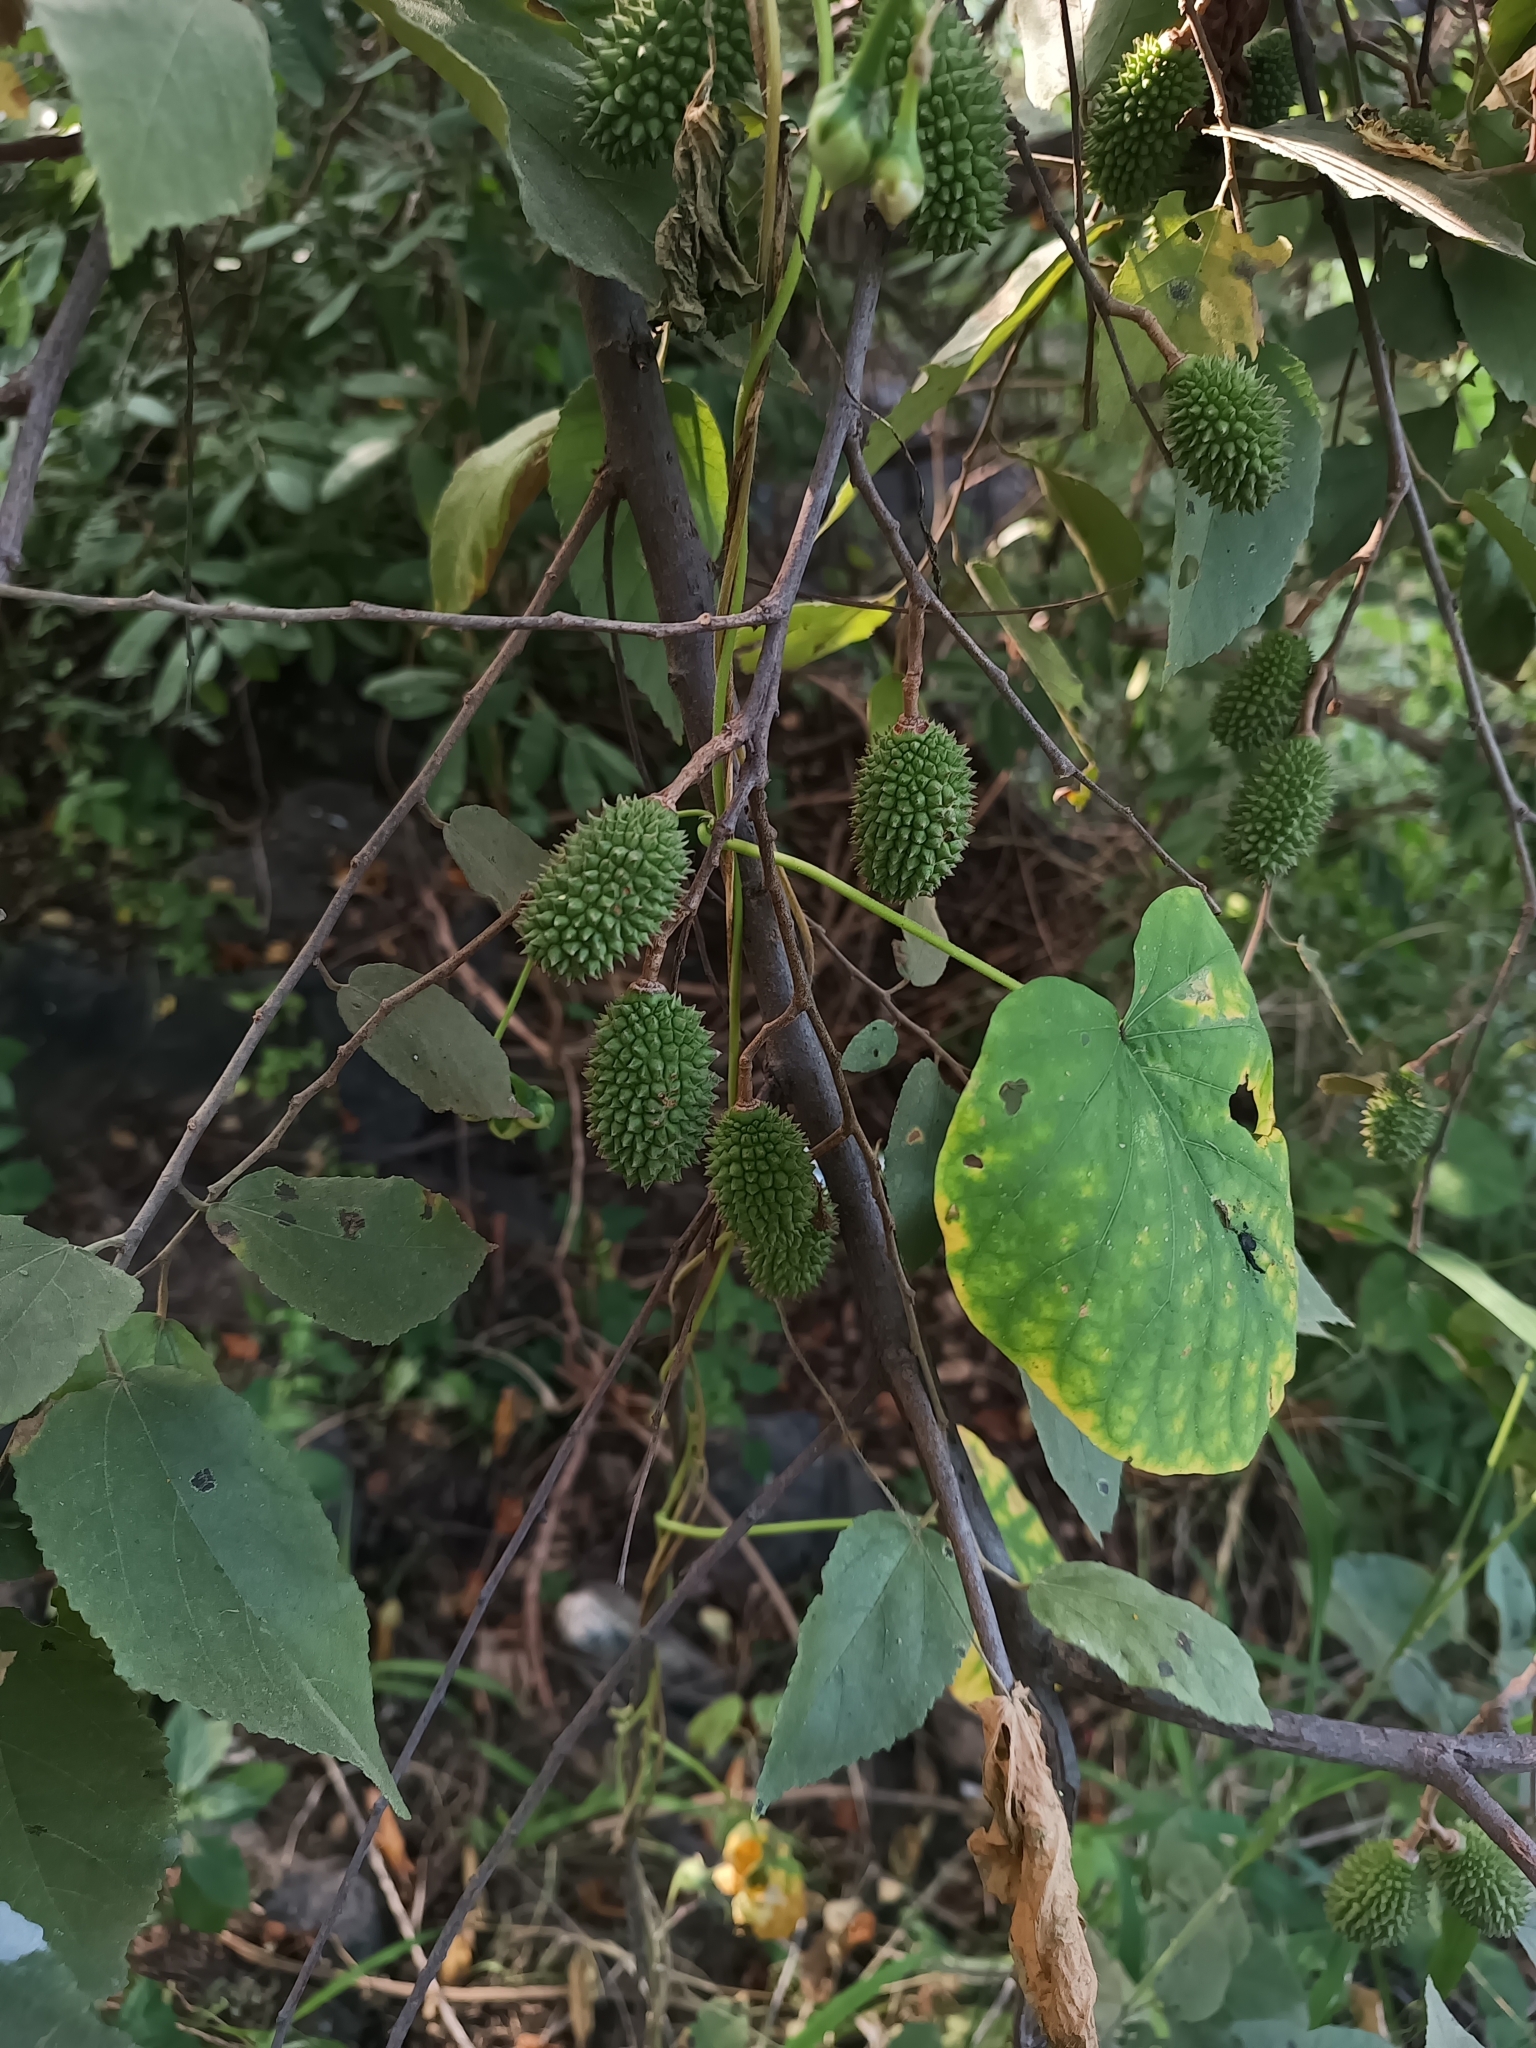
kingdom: Plantae
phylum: Tracheophyta
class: Magnoliopsida
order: Malvales
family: Malvaceae
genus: Guazuma
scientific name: Guazuma ulmifolia
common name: Bastard-cedar
